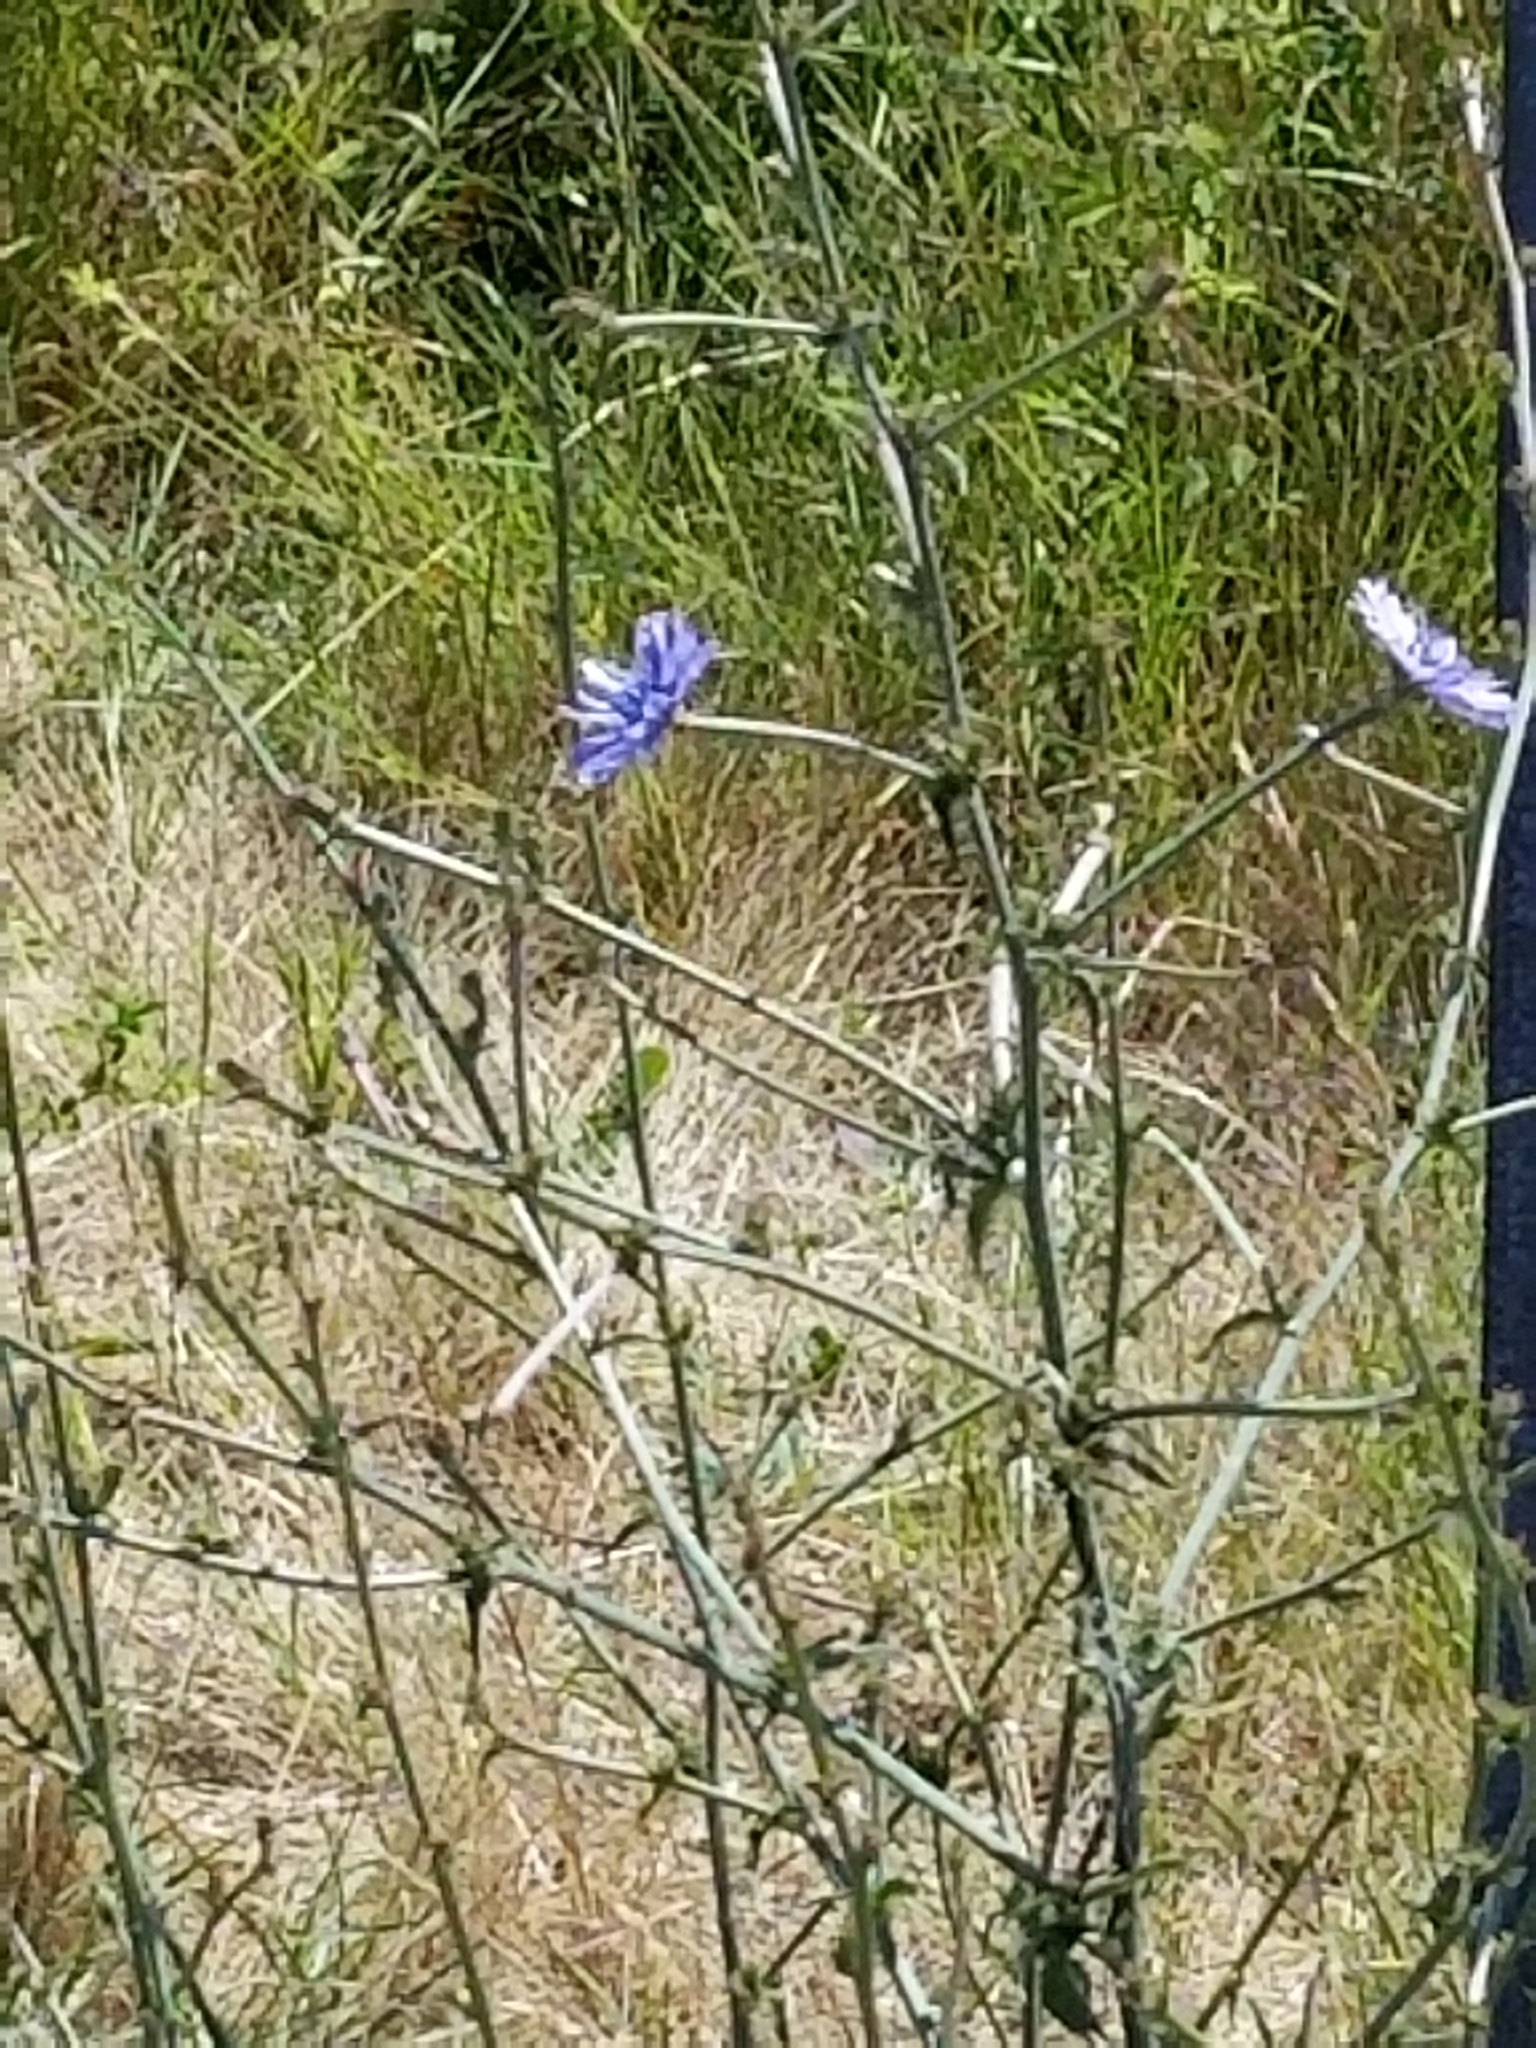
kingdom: Plantae
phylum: Tracheophyta
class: Magnoliopsida
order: Asterales
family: Asteraceae
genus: Cichorium
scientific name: Cichorium intybus
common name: Chicory
